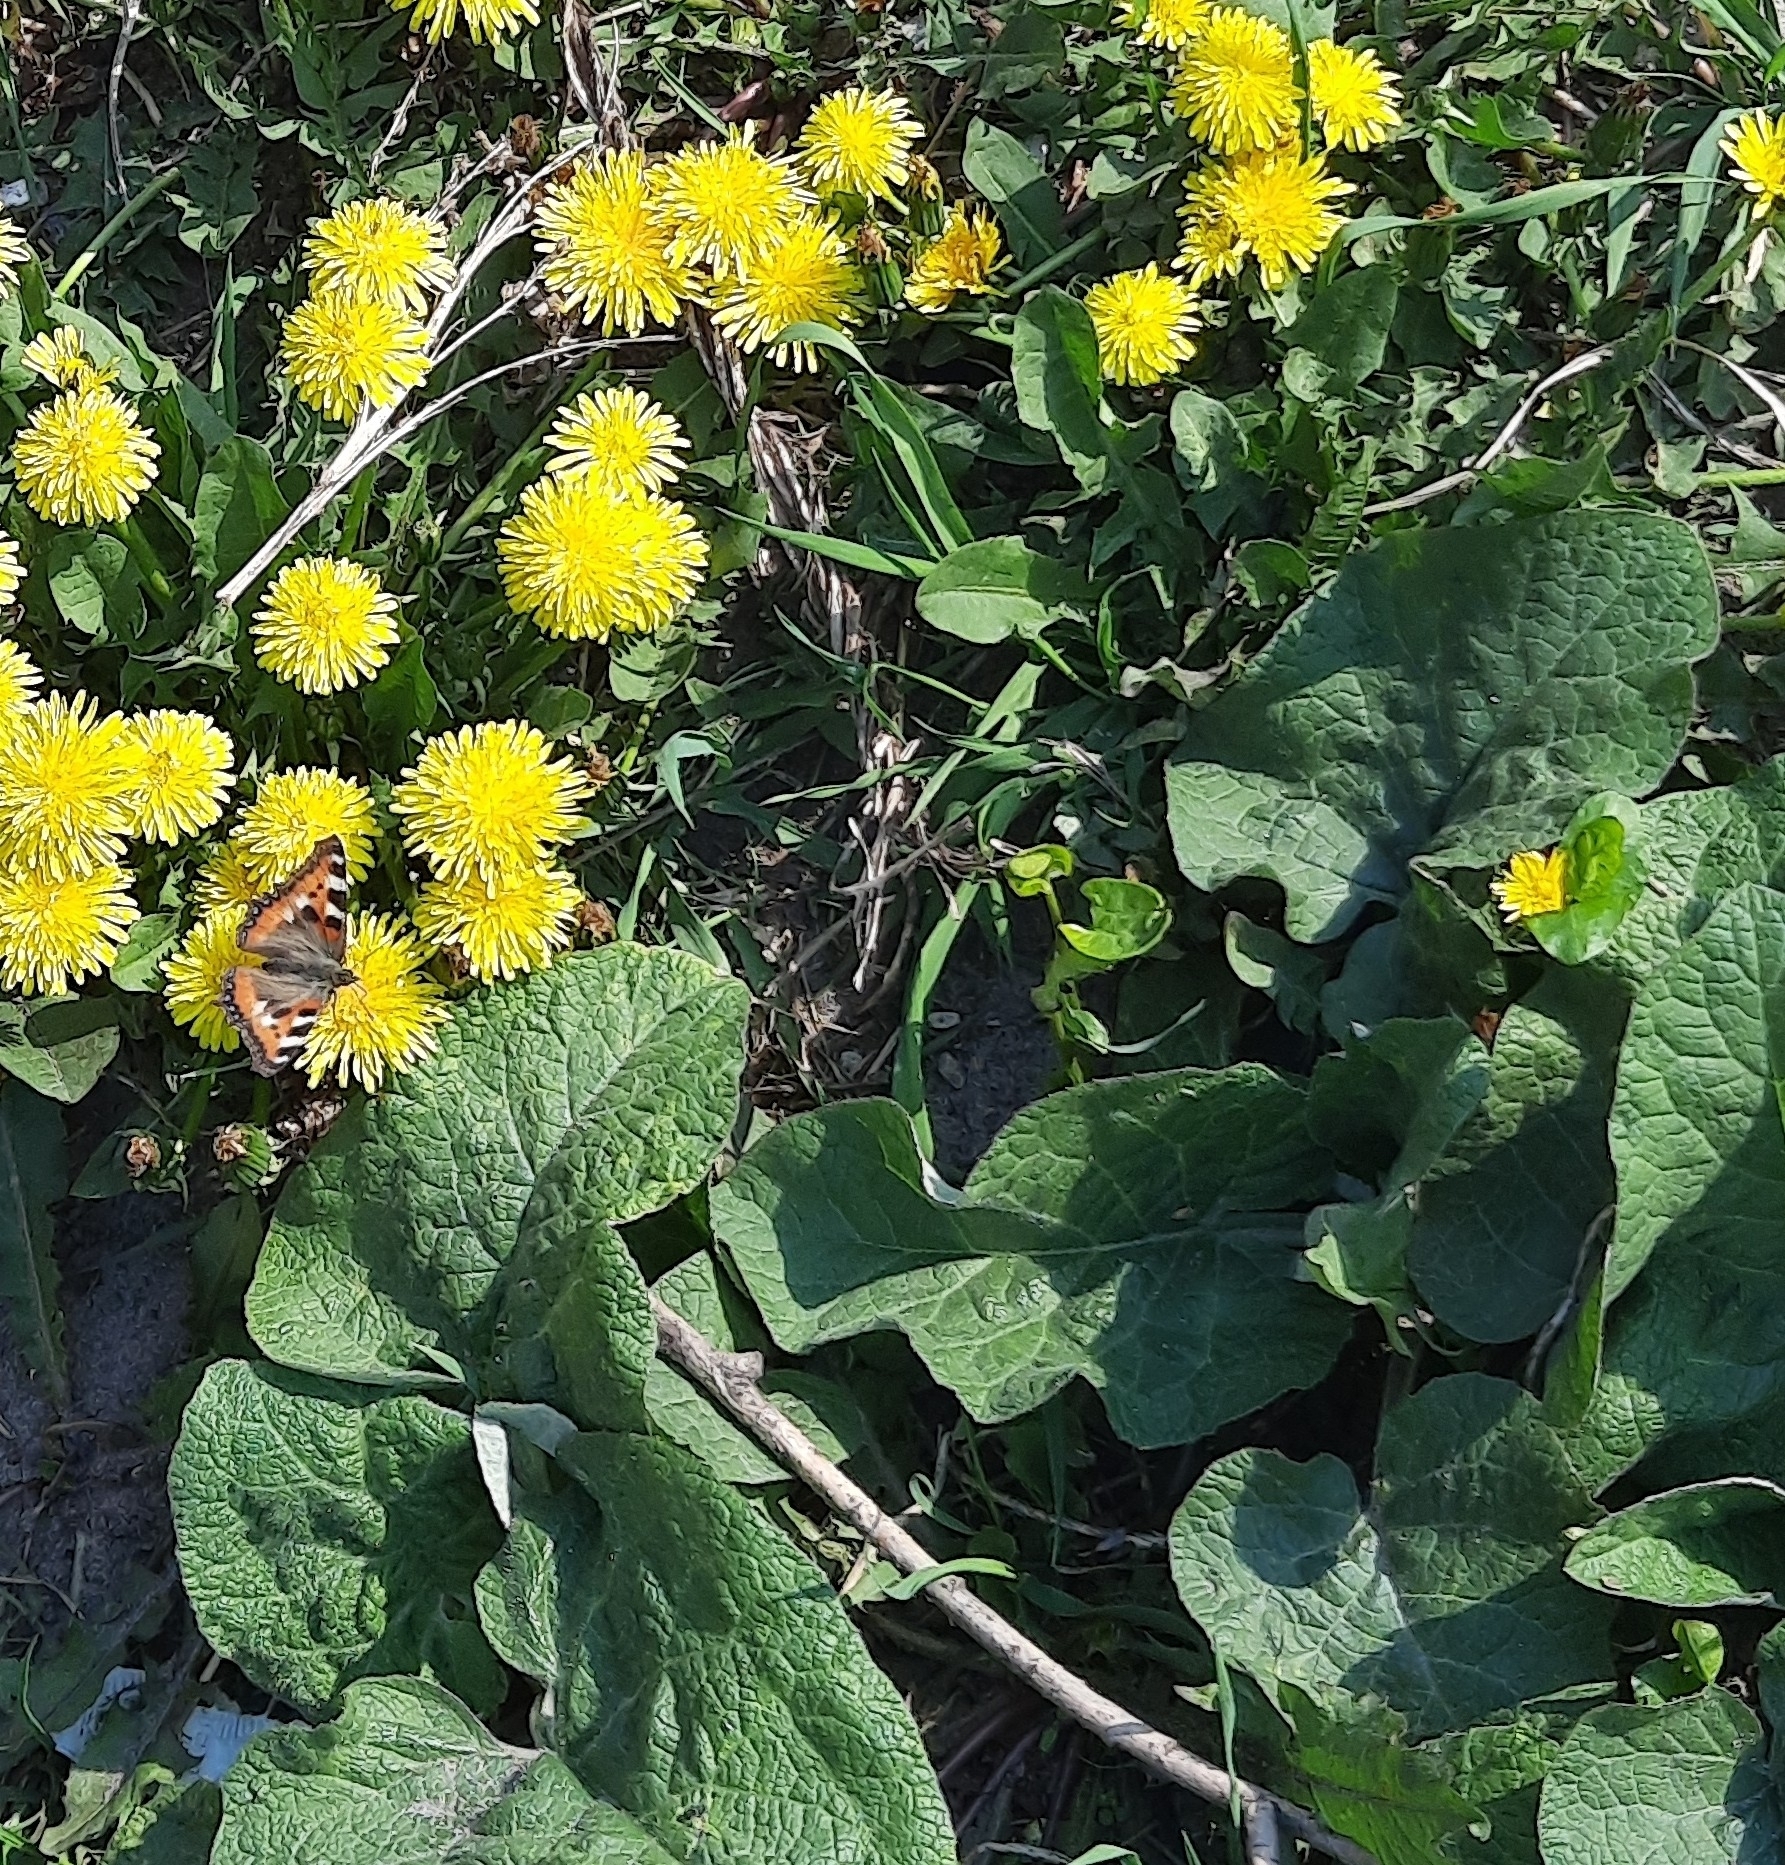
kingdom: Animalia
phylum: Arthropoda
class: Insecta
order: Lepidoptera
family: Nymphalidae
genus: Aglais
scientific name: Aglais urticae
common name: Small tortoiseshell
